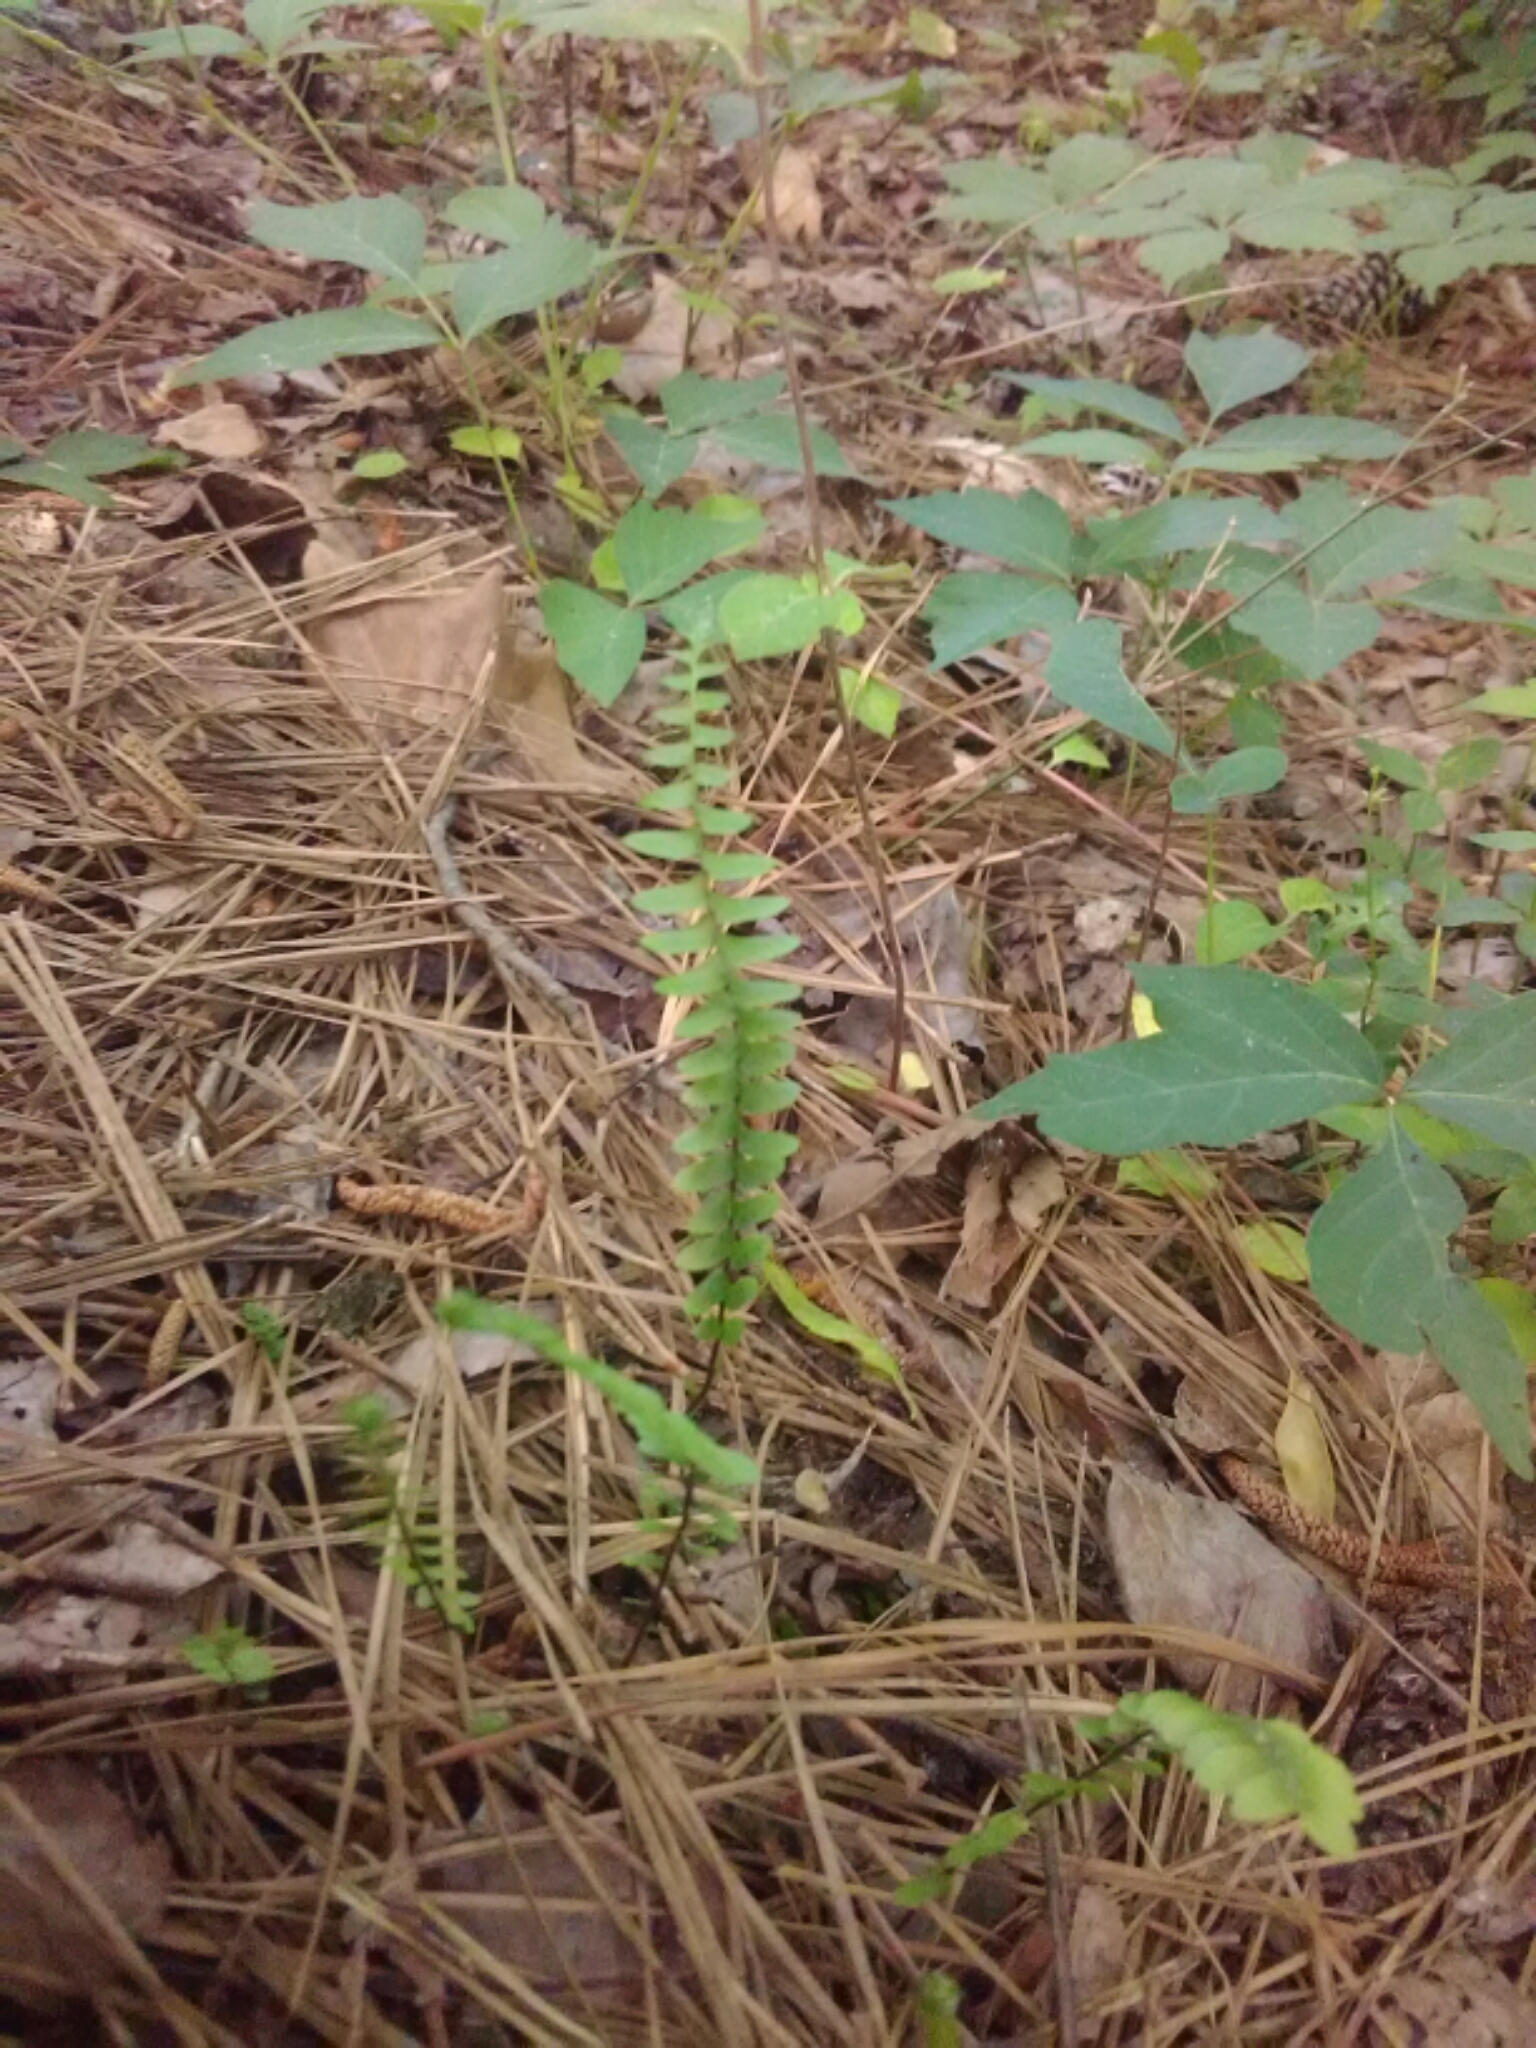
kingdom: Plantae
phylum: Tracheophyta
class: Polypodiopsida
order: Polypodiales
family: Aspleniaceae
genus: Asplenium
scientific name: Asplenium platyneuron
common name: Ebony spleenwort
